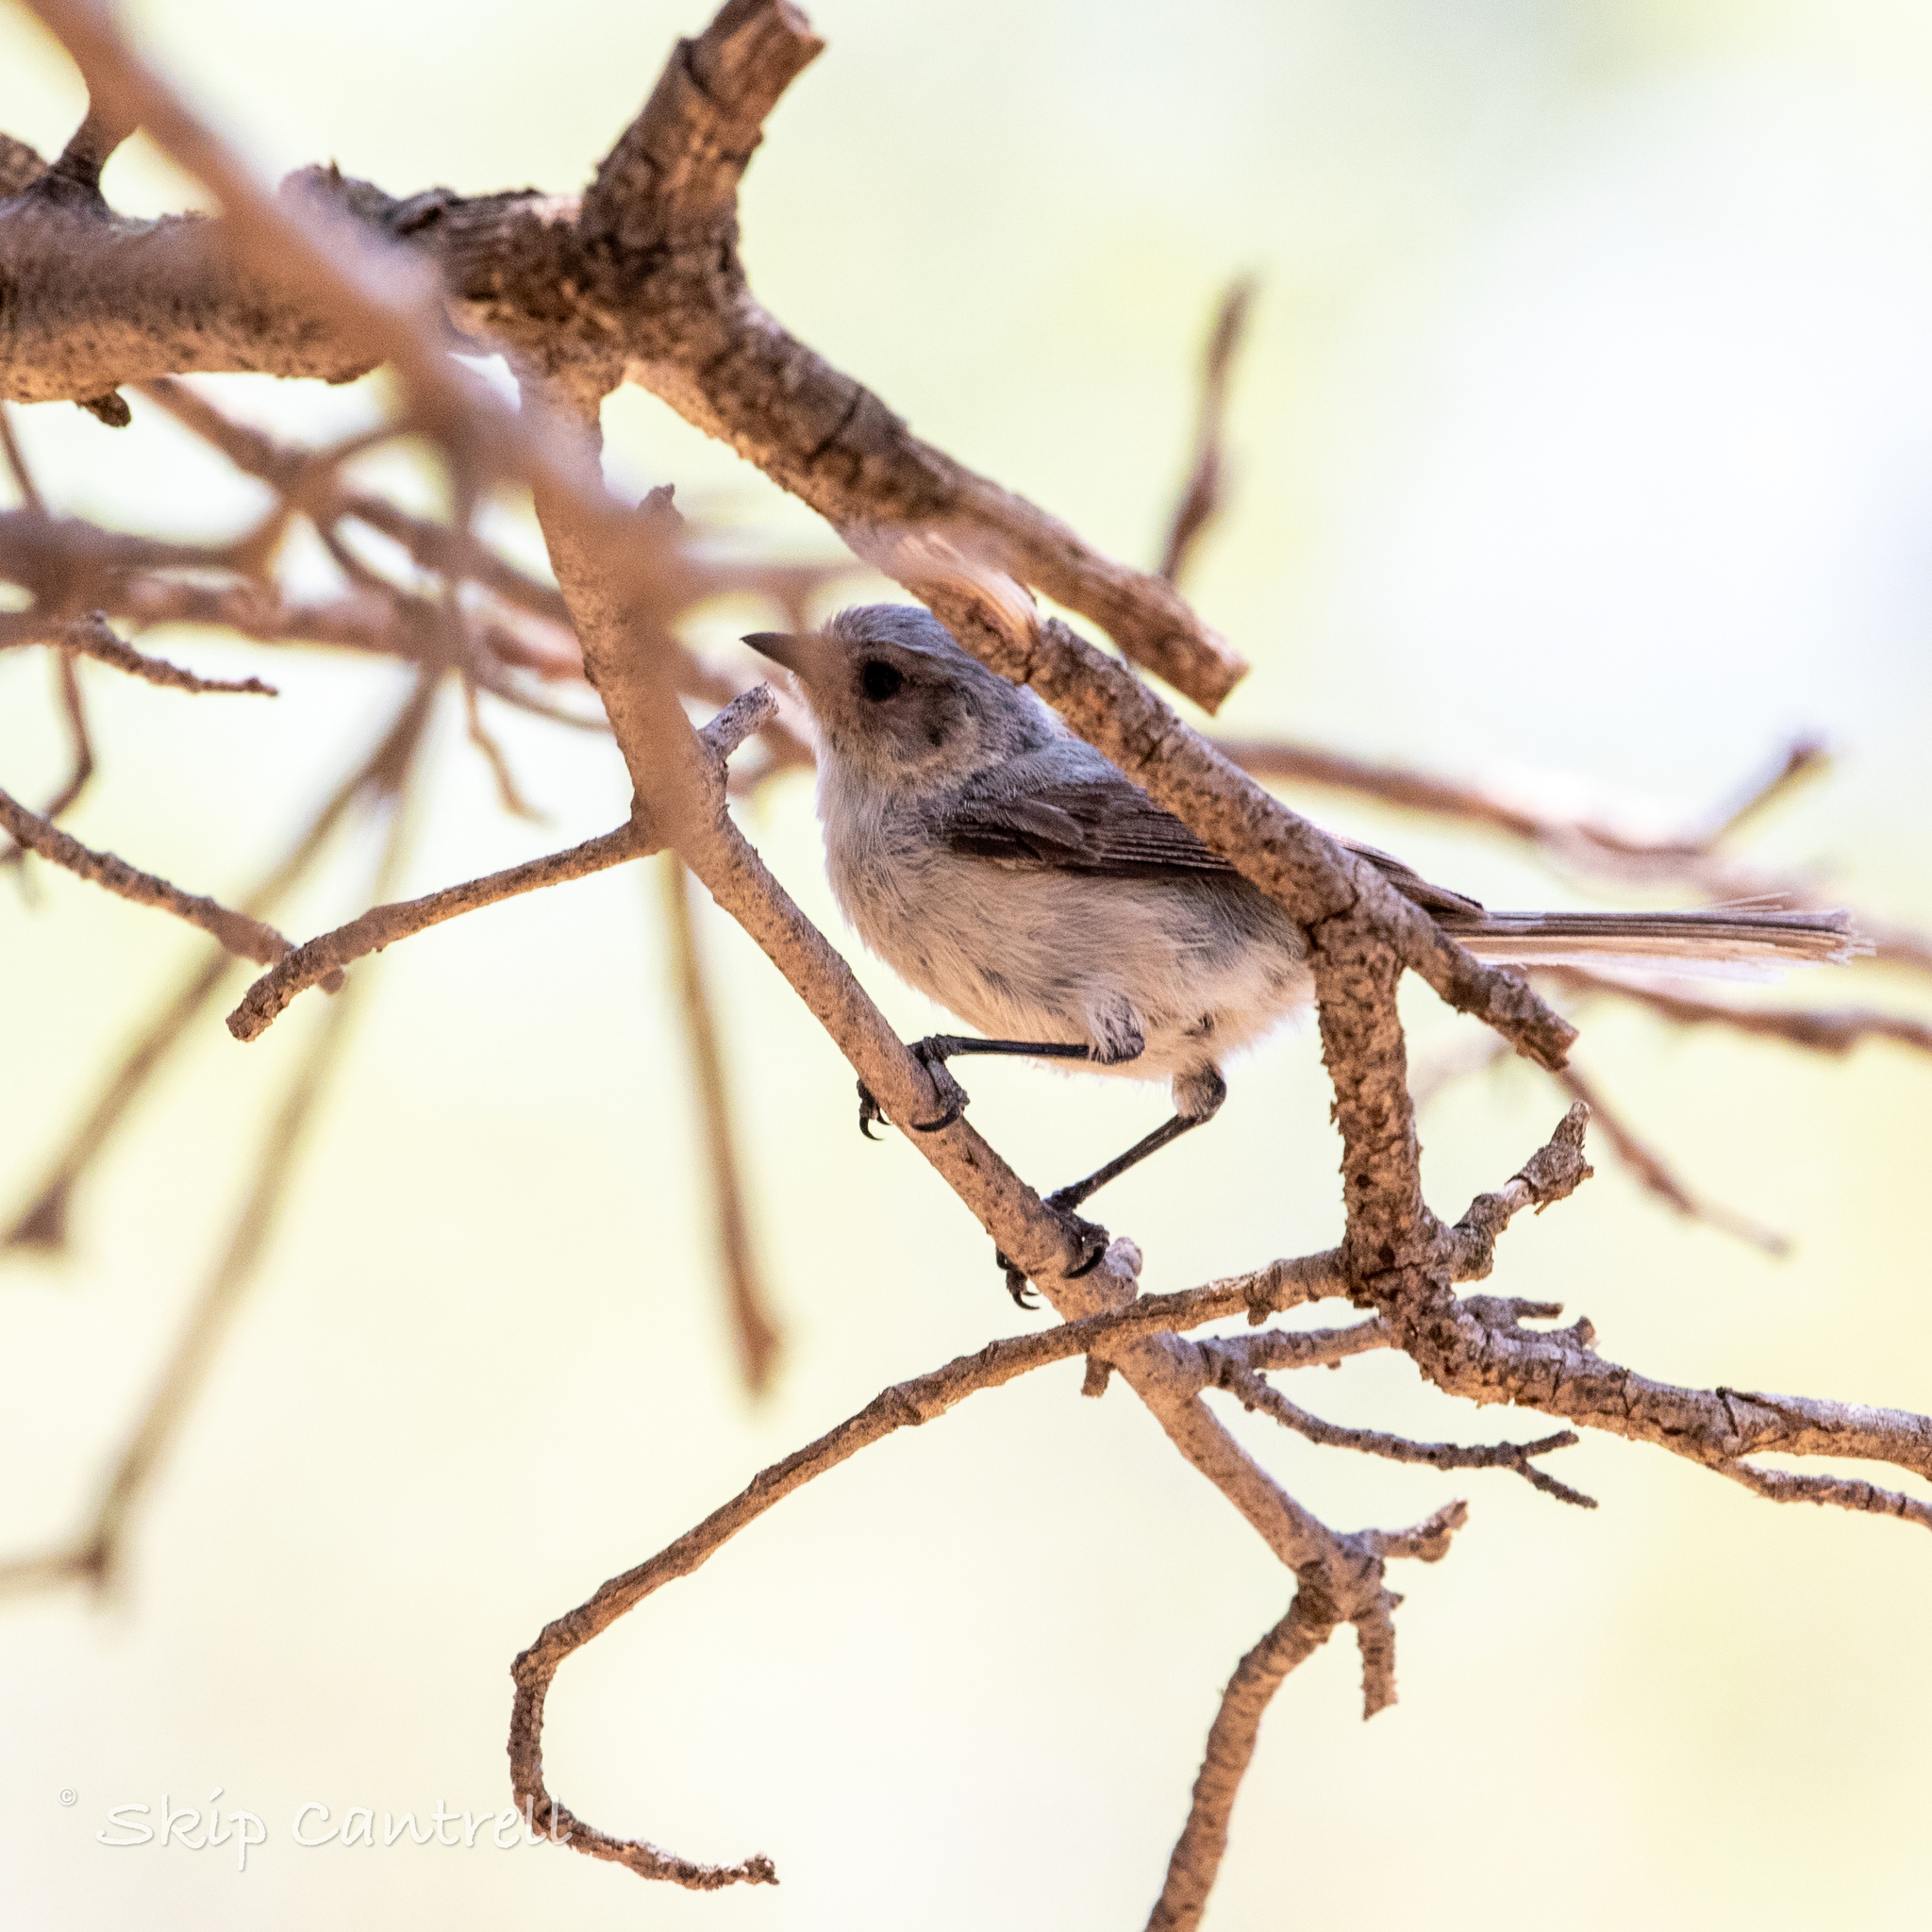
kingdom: Animalia
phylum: Chordata
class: Aves
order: Passeriformes
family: Aegithalidae
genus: Psaltriparus
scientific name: Psaltriparus minimus
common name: American bushtit
